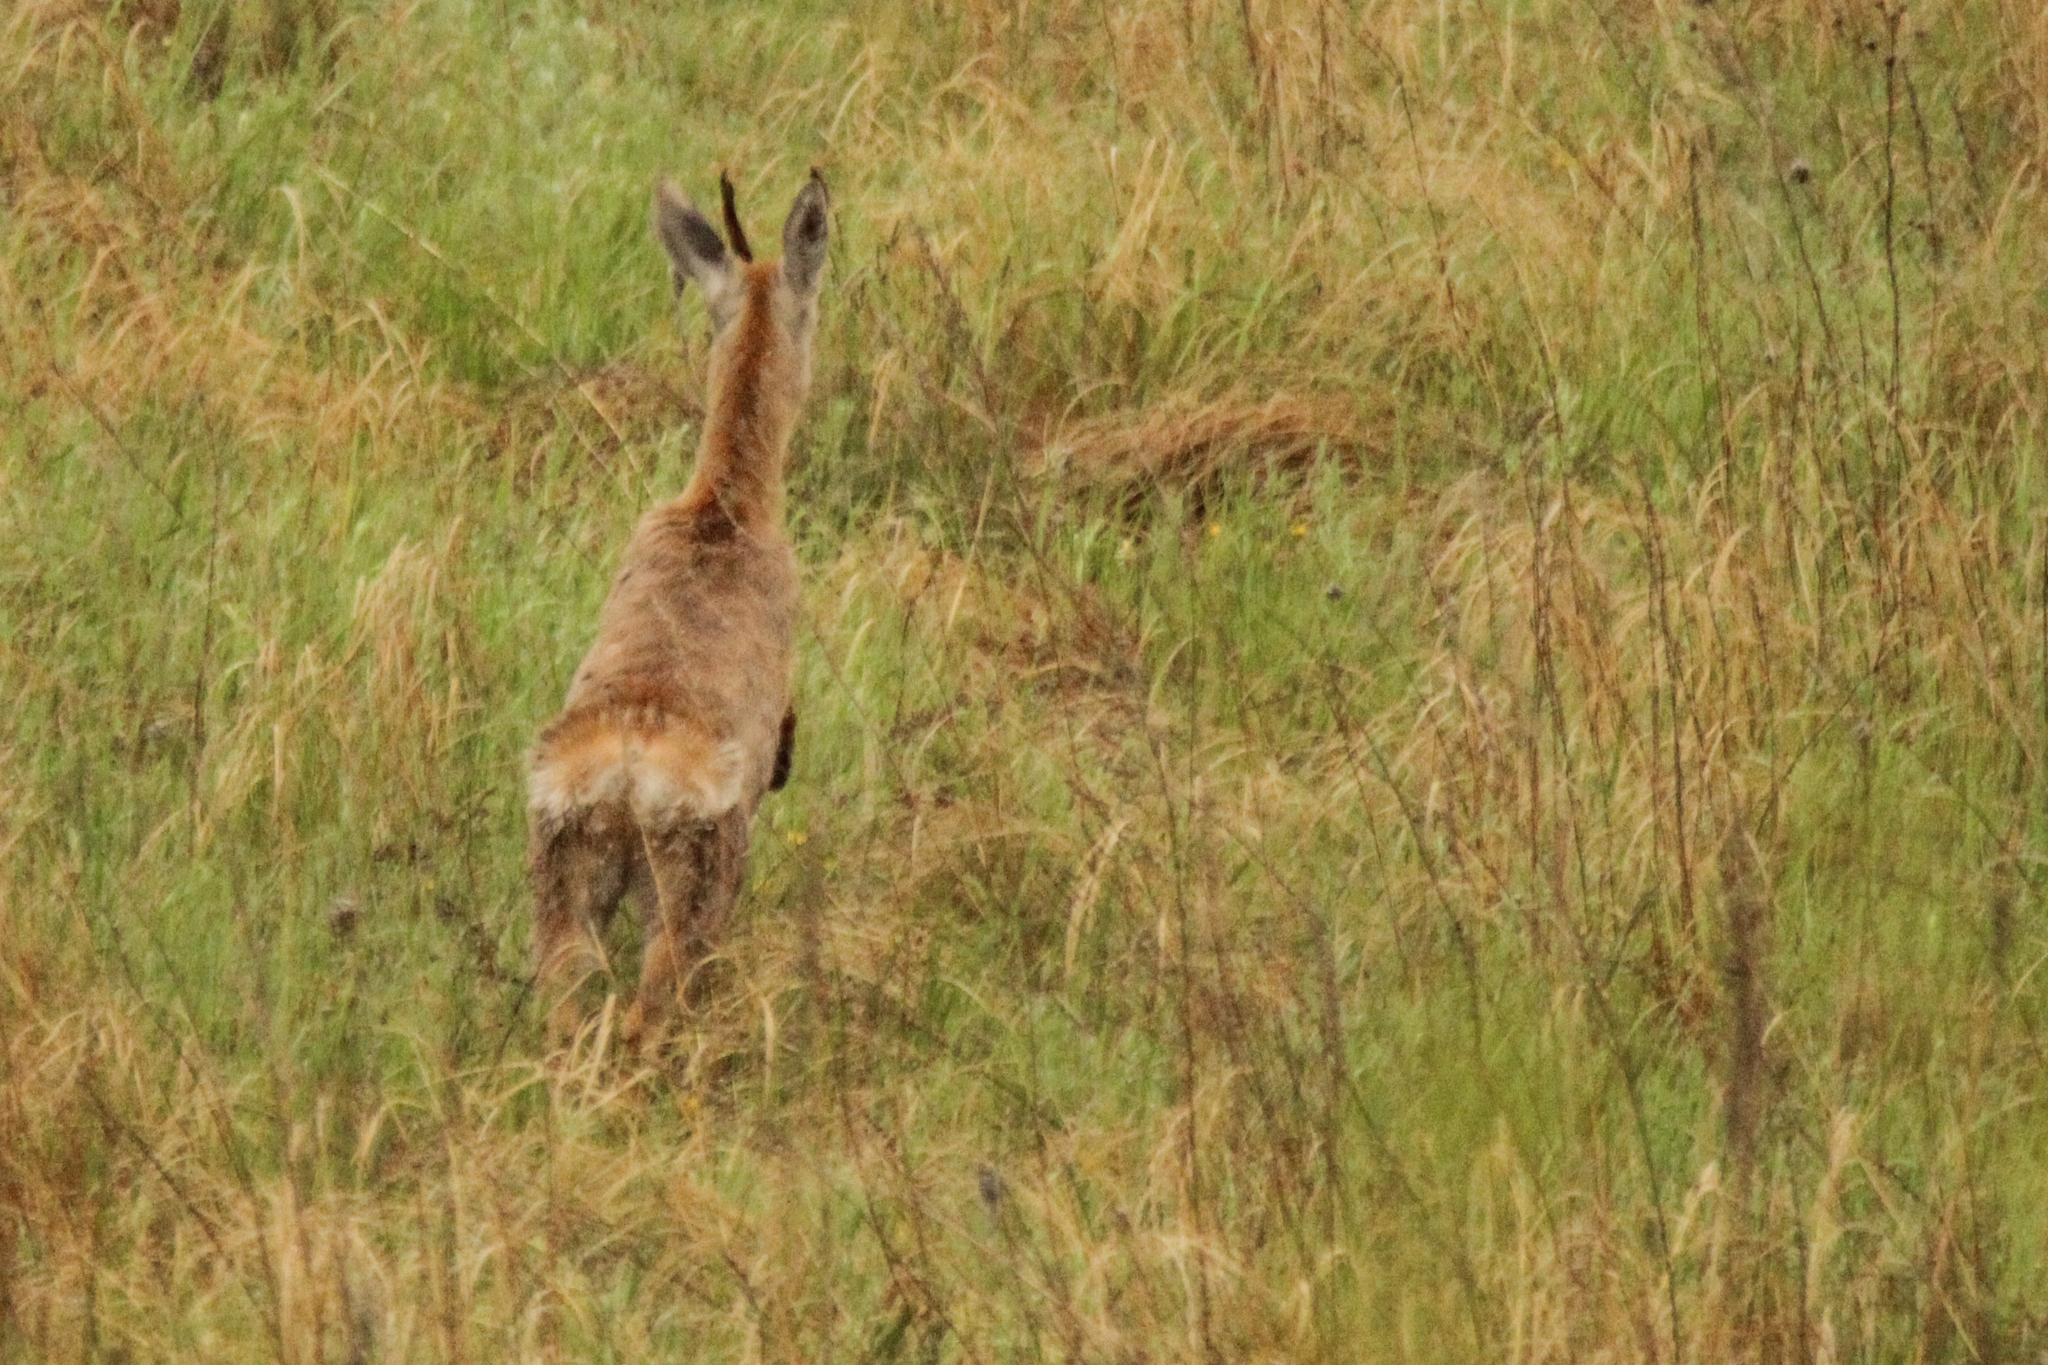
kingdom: Animalia
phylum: Chordata
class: Mammalia
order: Artiodactyla
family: Cervidae
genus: Capreolus
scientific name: Capreolus pygargus
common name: Siberian roe
